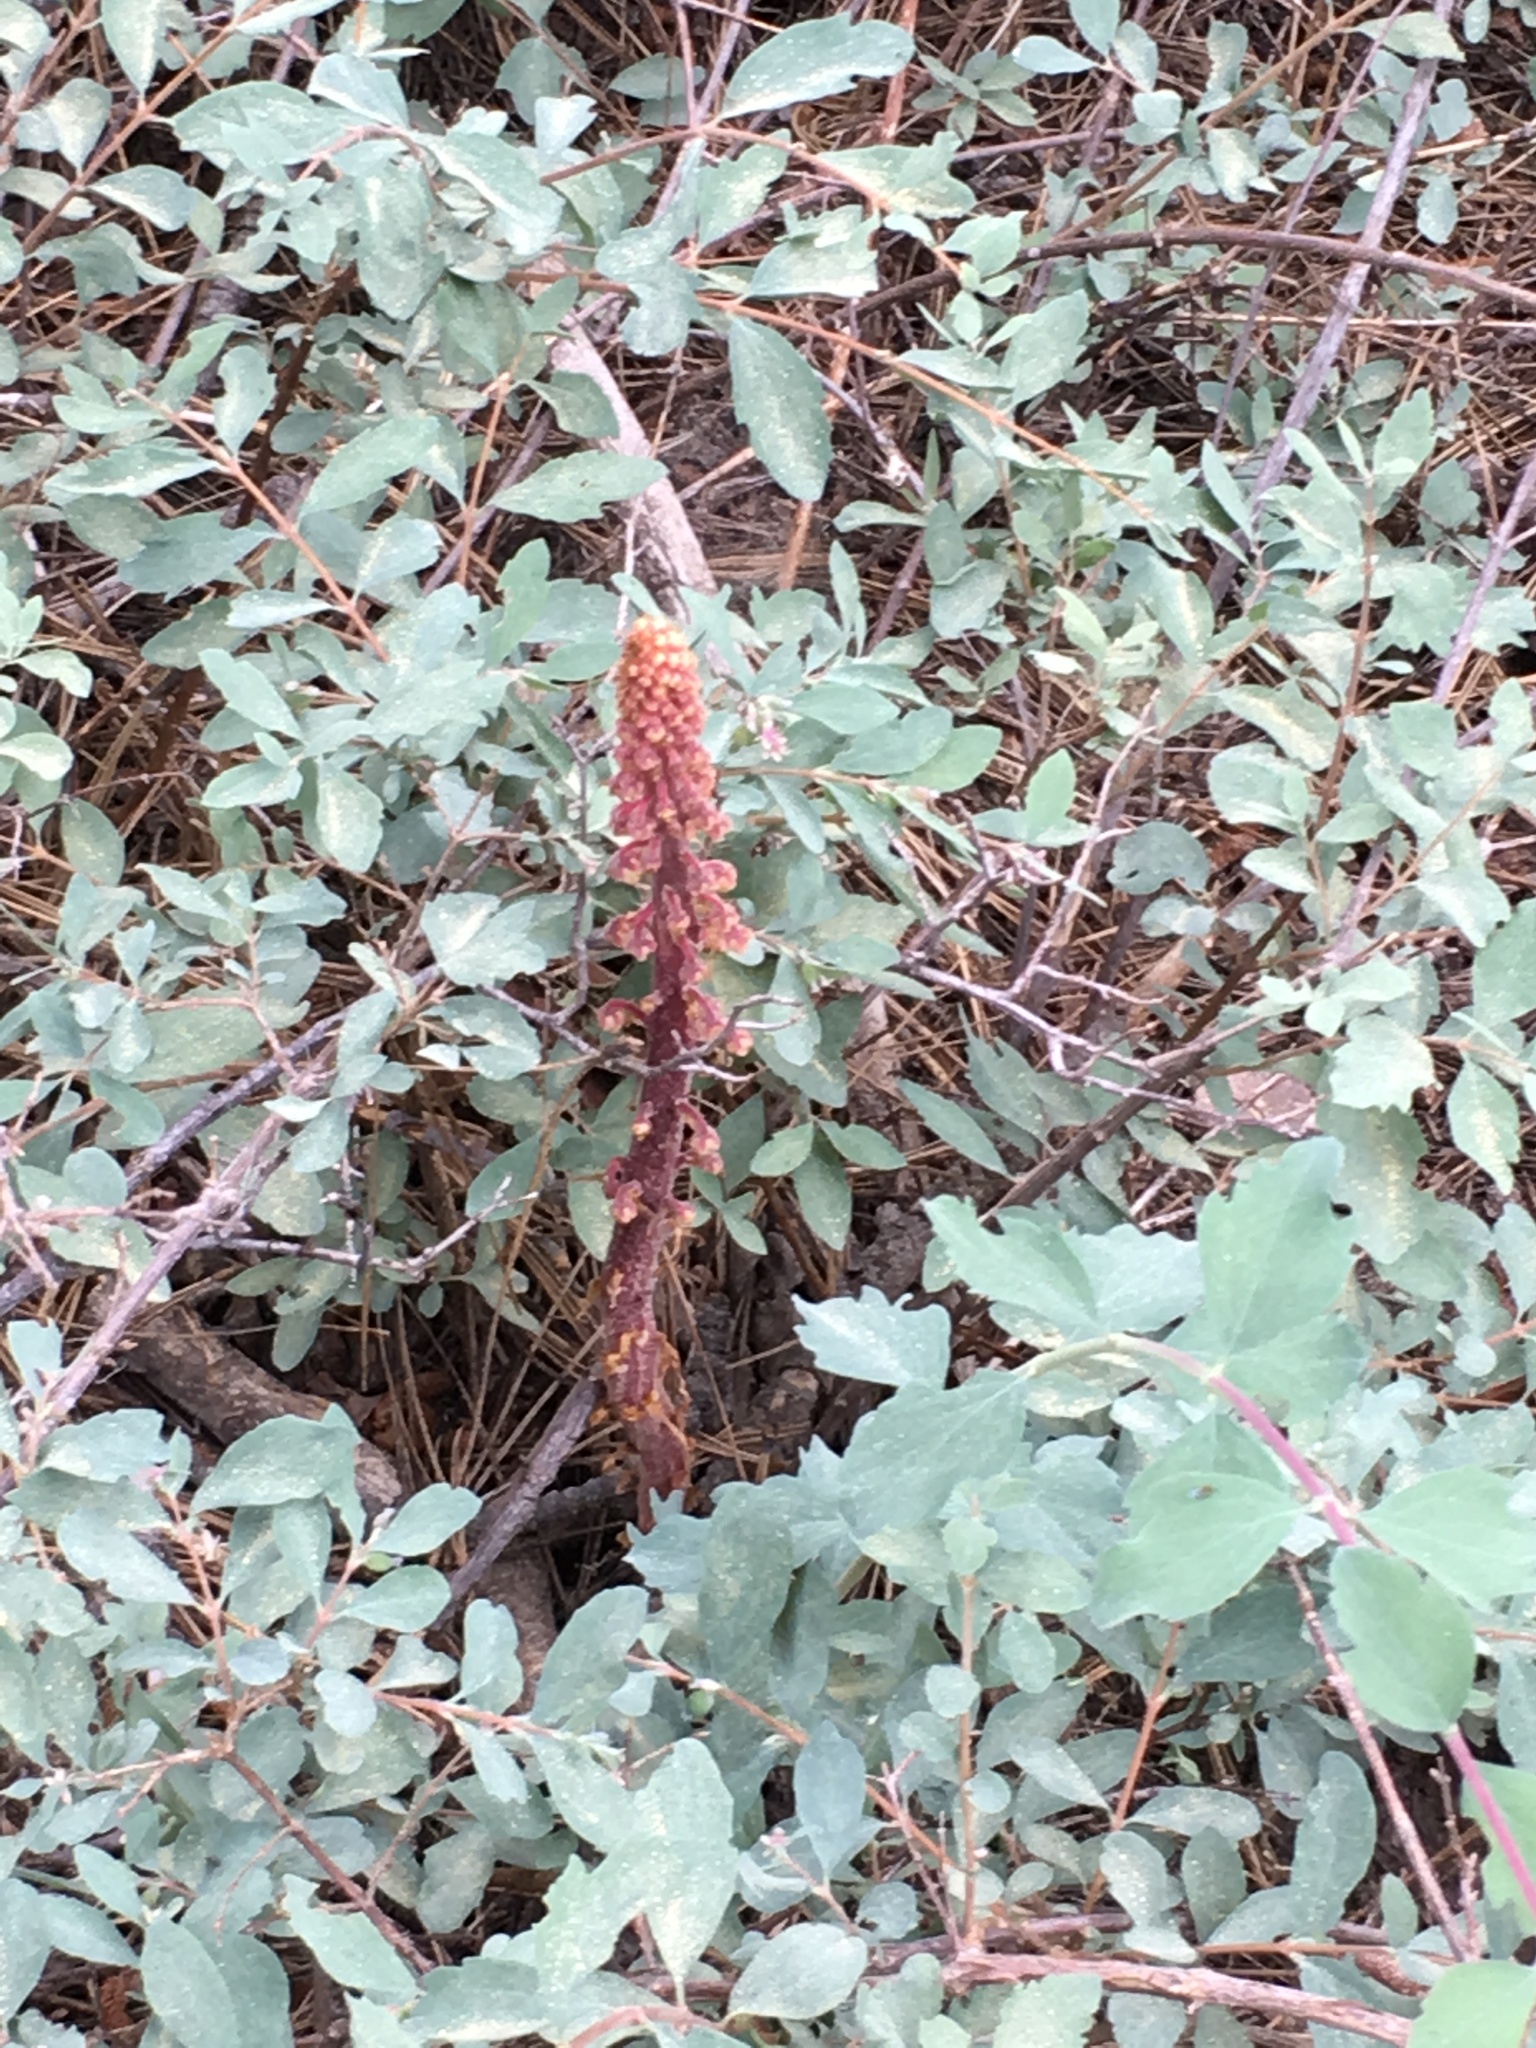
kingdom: Plantae
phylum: Tracheophyta
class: Magnoliopsida
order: Ericales
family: Ericaceae
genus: Pterospora
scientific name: Pterospora andromedea
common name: Giant bird's-nest
